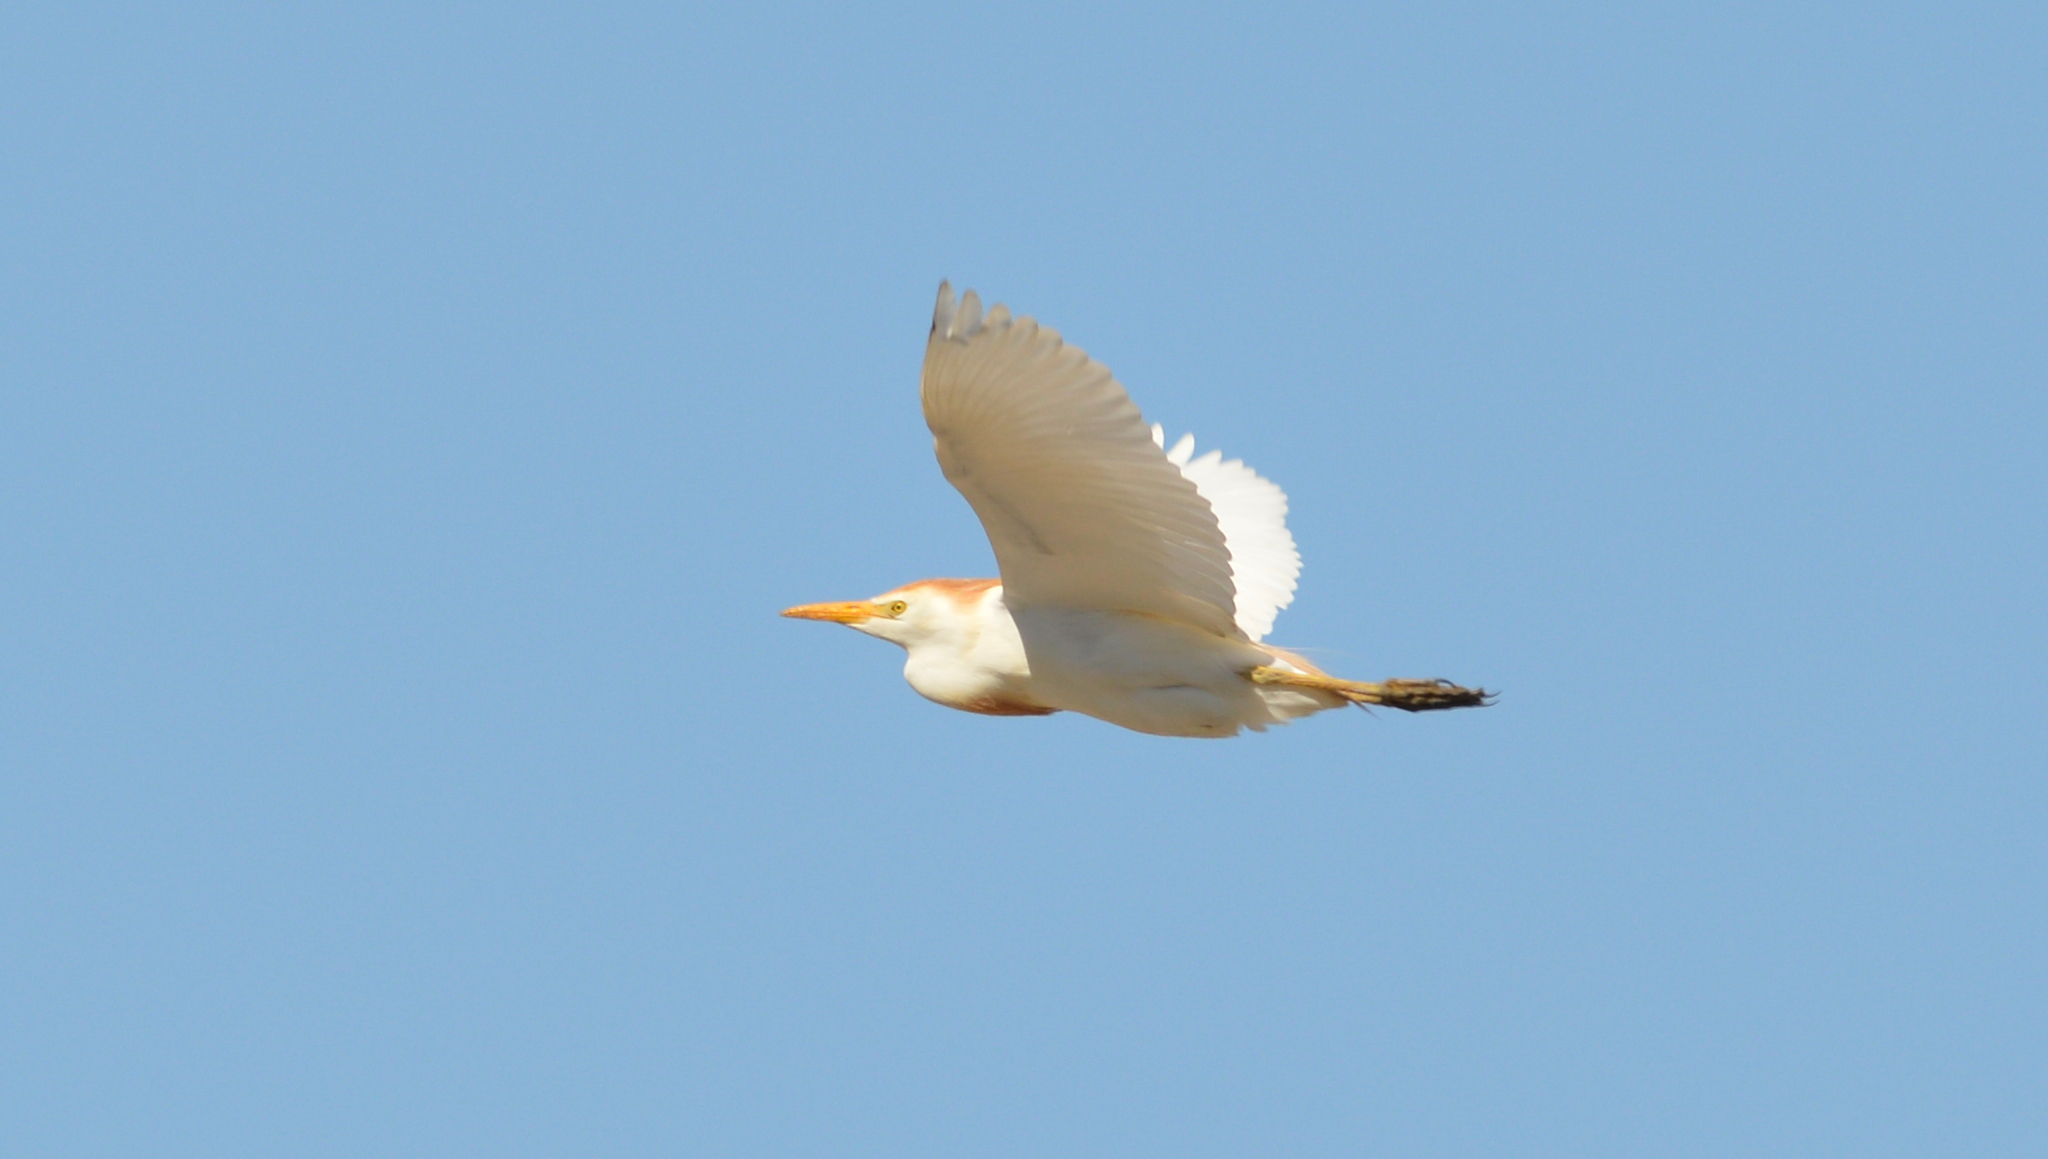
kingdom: Animalia
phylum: Chordata
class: Aves
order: Pelecaniformes
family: Ardeidae
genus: Bubulcus
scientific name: Bubulcus ibis
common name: Cattle egret
